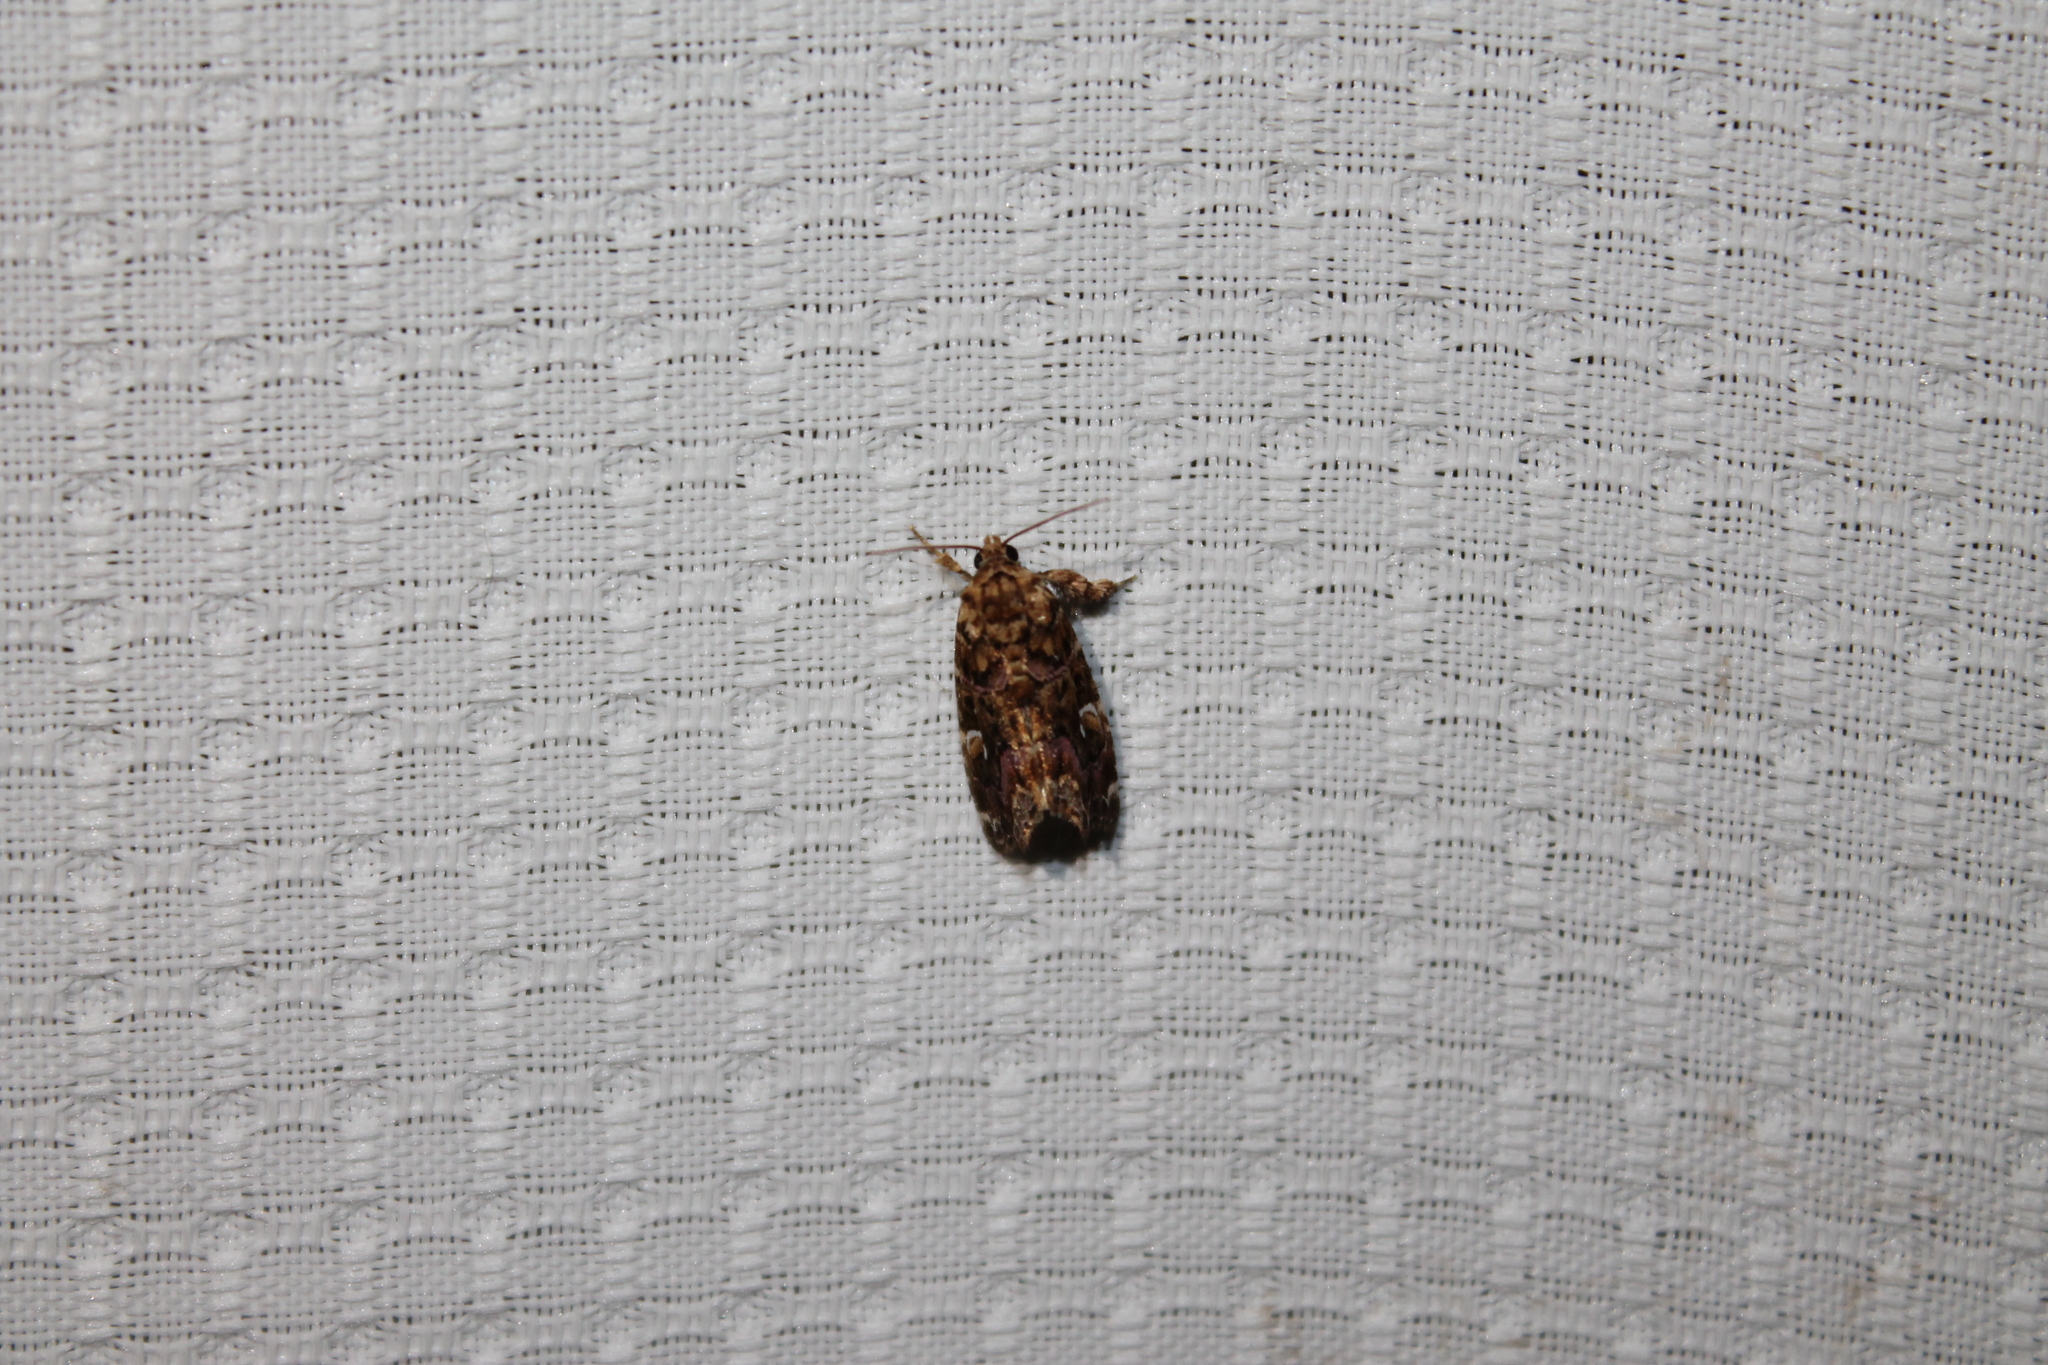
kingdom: Animalia
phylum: Arthropoda
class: Insecta
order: Lepidoptera
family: Noctuidae
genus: Callopistria
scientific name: Callopistria mollissima
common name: Pink-shaded fern moth
